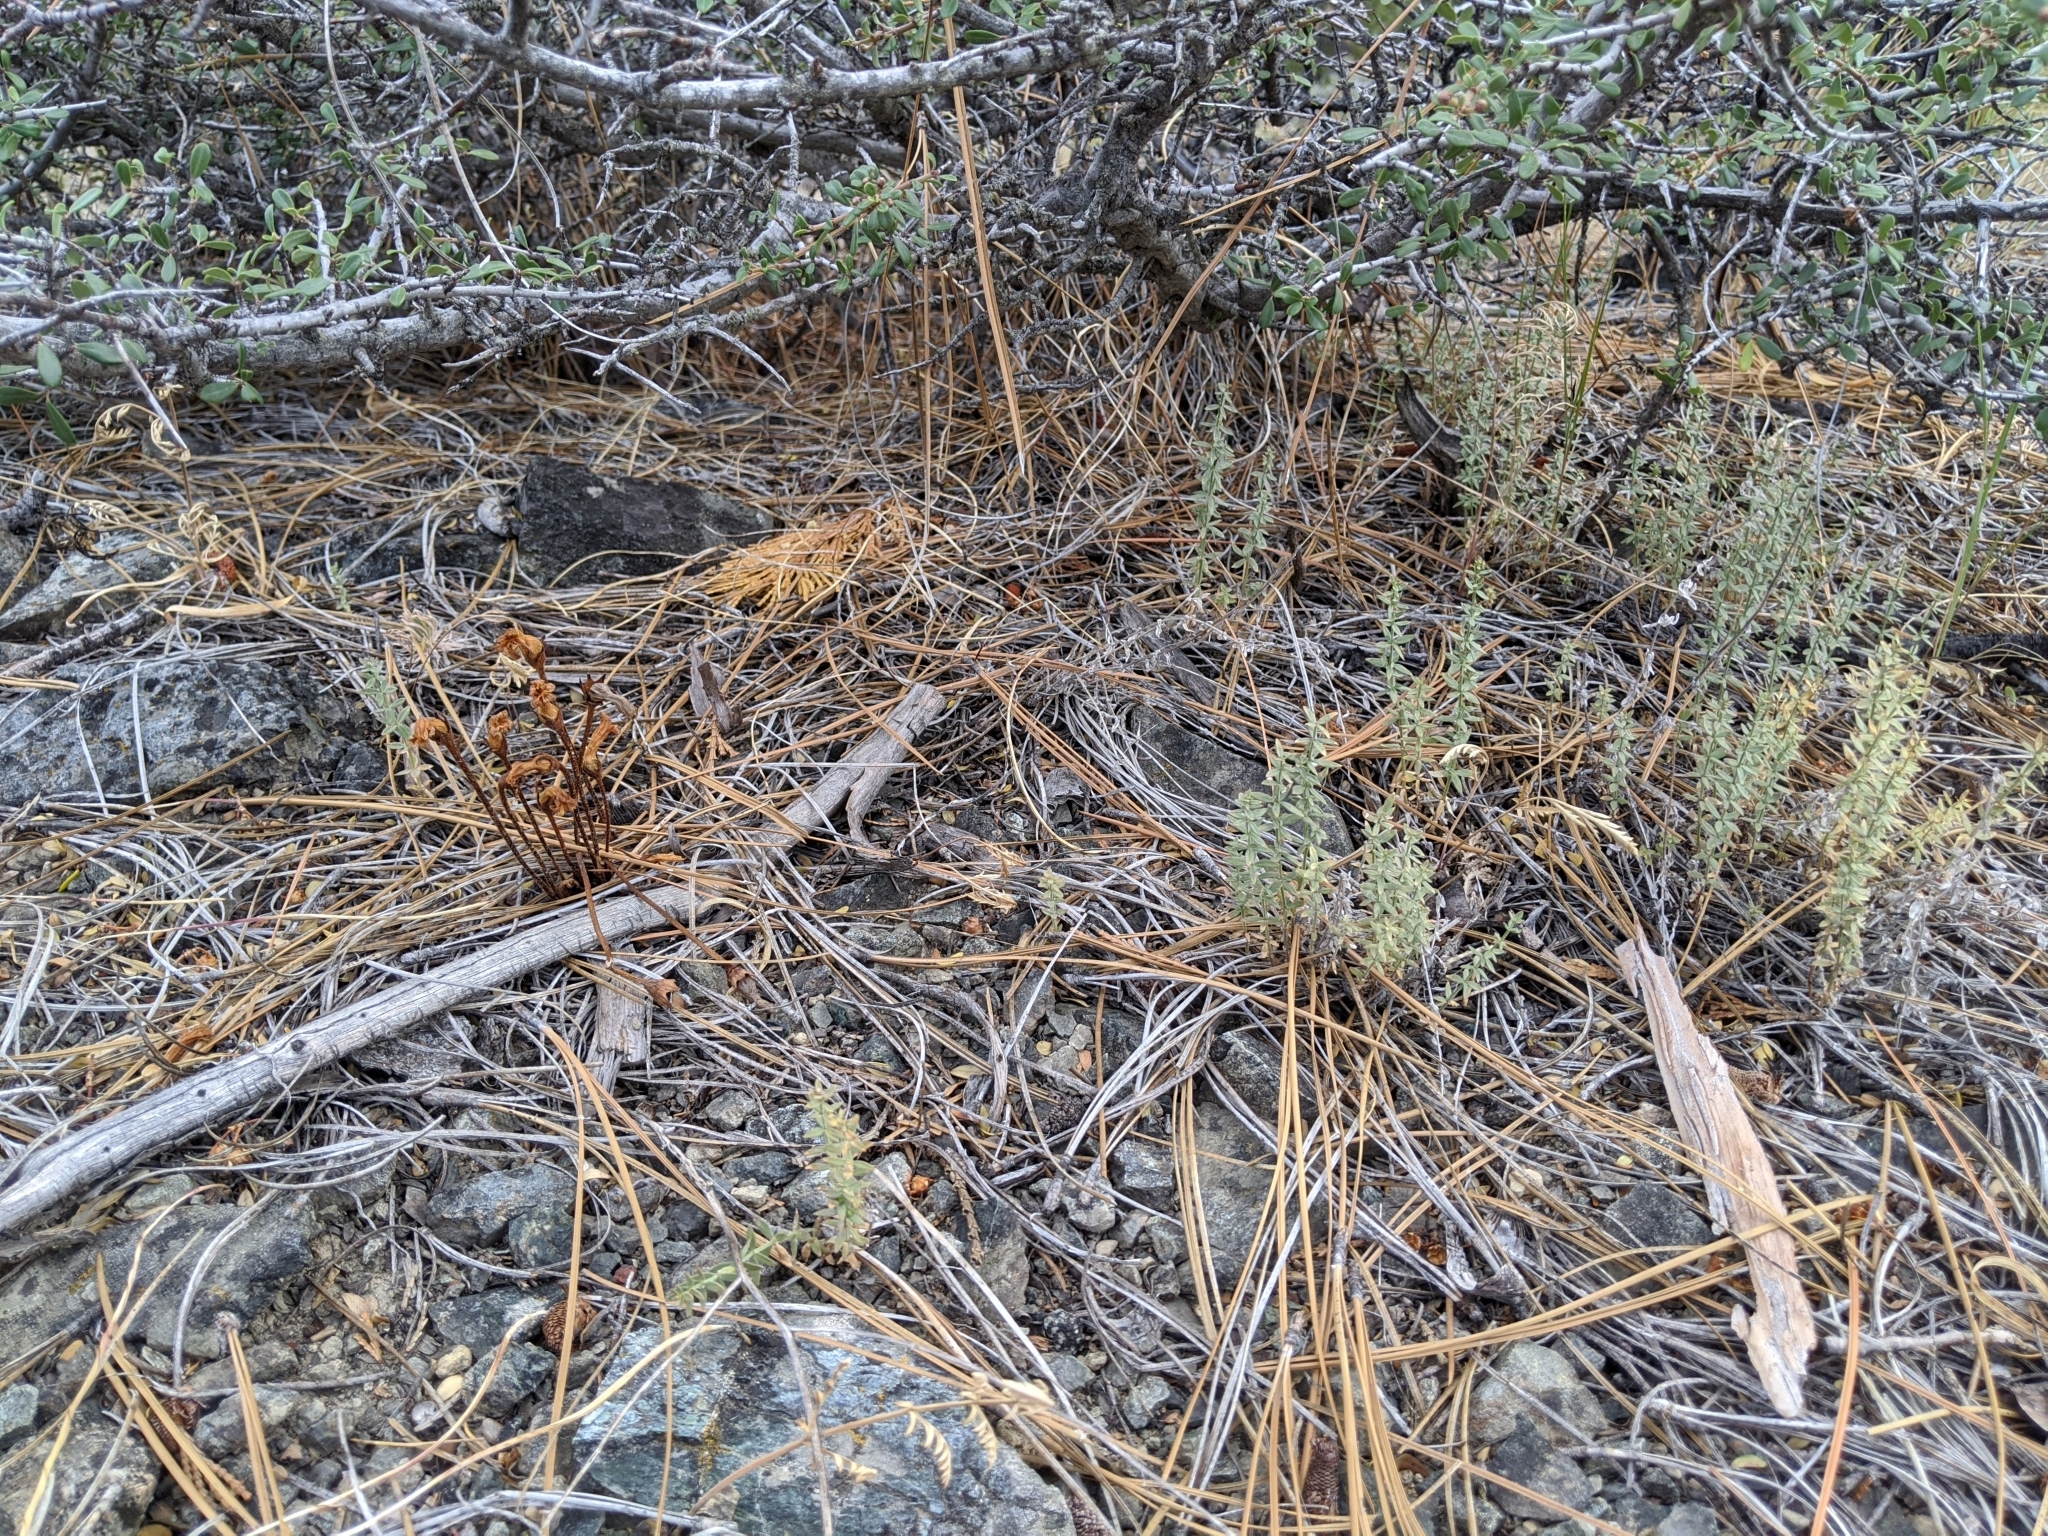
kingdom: Plantae
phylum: Tracheophyta
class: Magnoliopsida
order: Lamiales
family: Orobanchaceae
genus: Aphyllon
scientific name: Aphyllon epigalium
